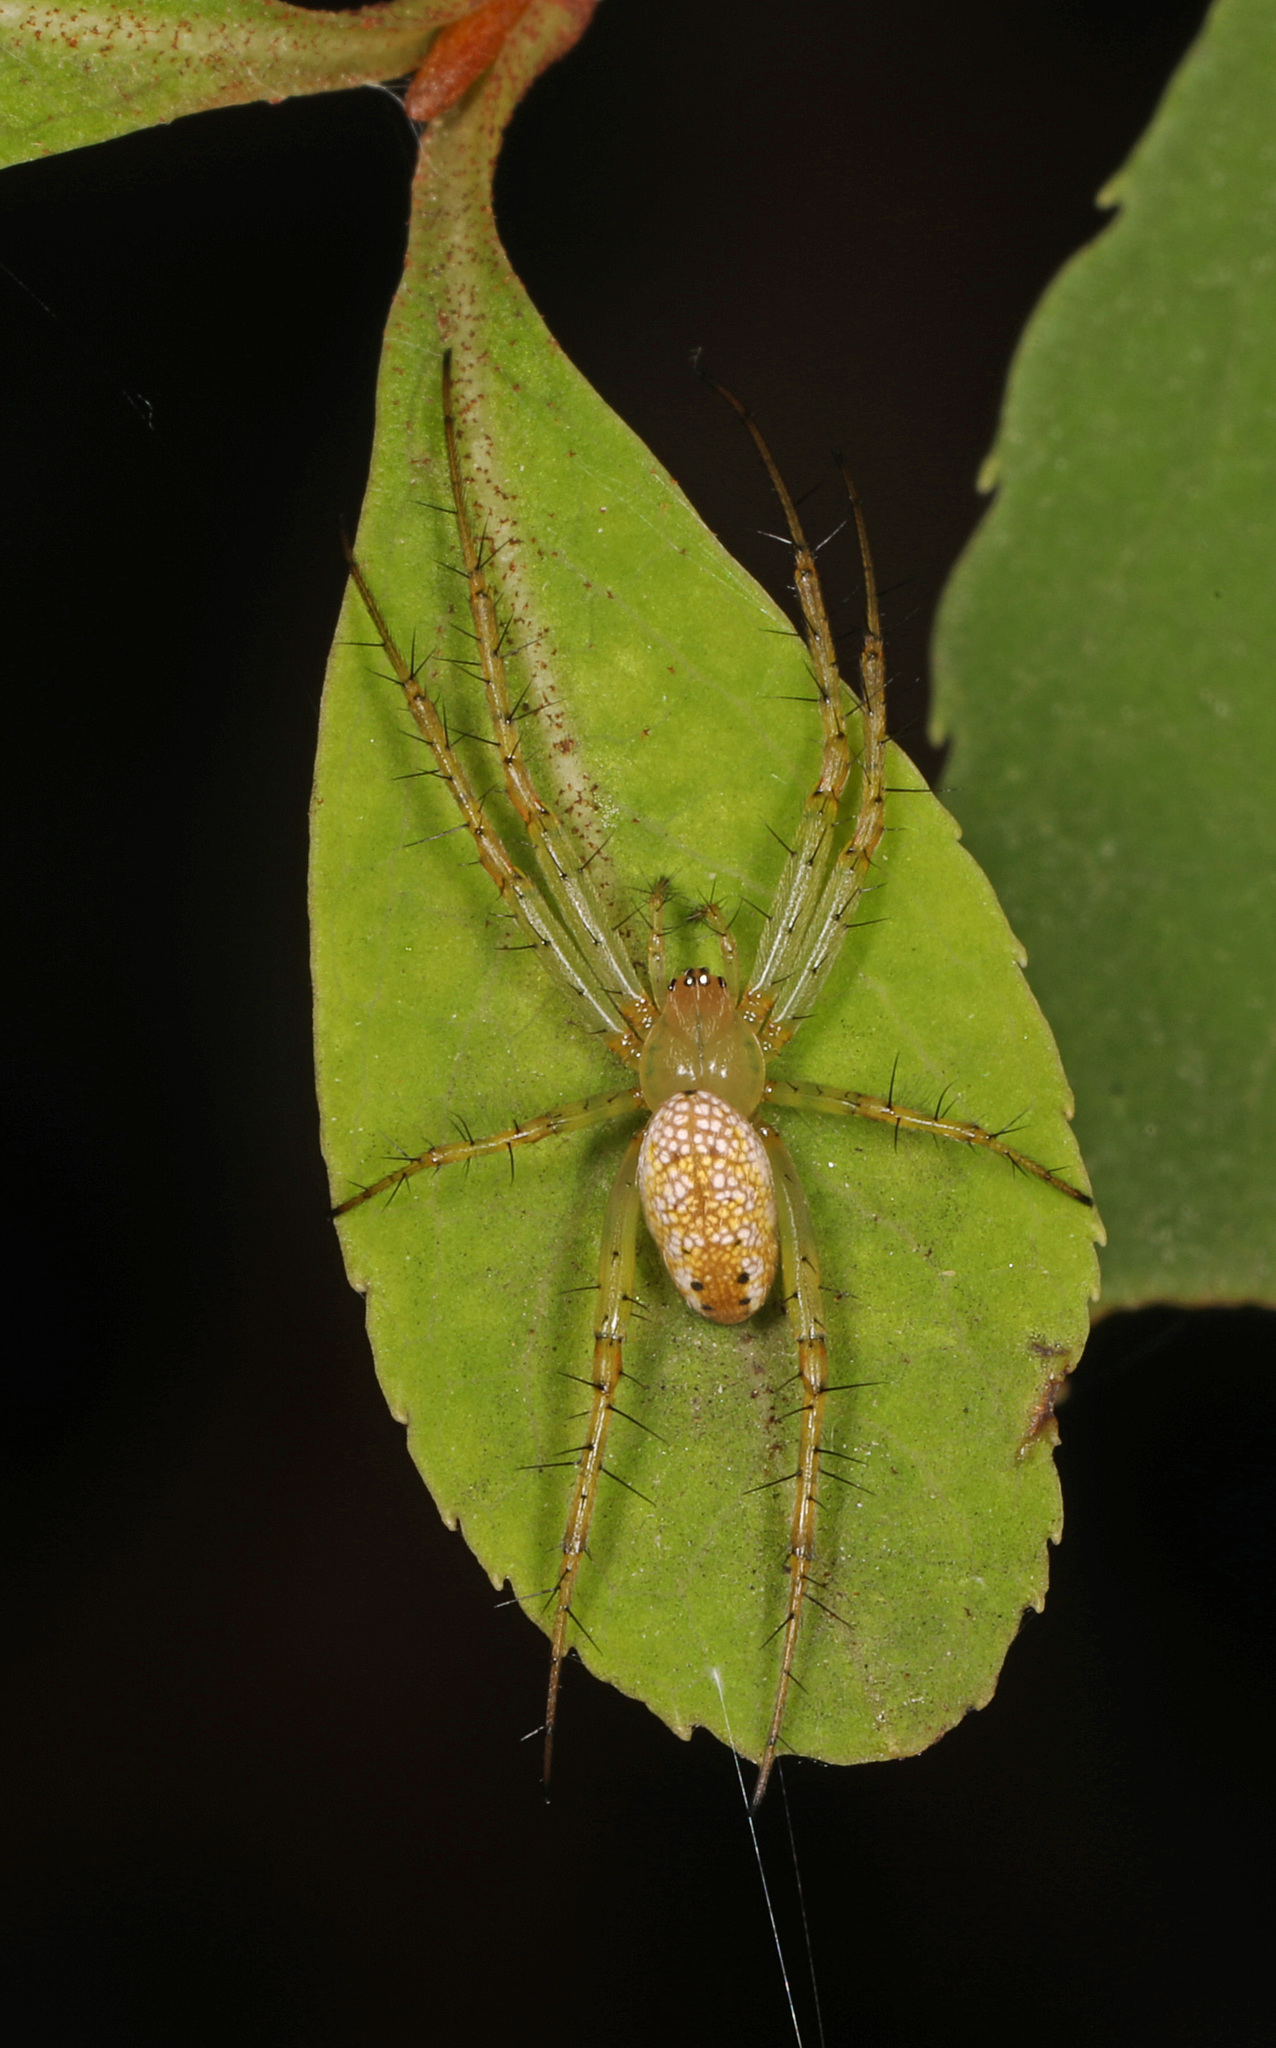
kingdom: Animalia
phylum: Arthropoda
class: Arachnida
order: Araneae
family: Araneidae
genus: Mangora
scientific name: Mangora maculata
